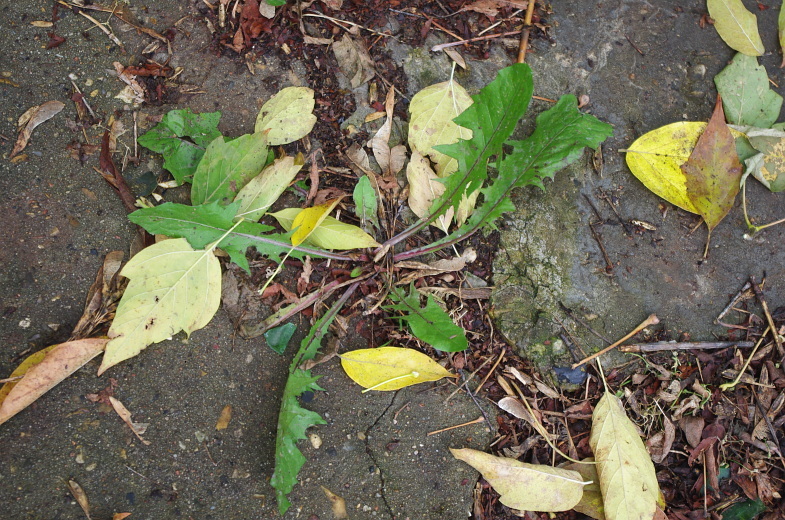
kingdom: Plantae
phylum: Tracheophyta
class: Magnoliopsida
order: Asterales
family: Asteraceae
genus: Taraxacum
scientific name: Taraxacum officinale
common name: Common dandelion
